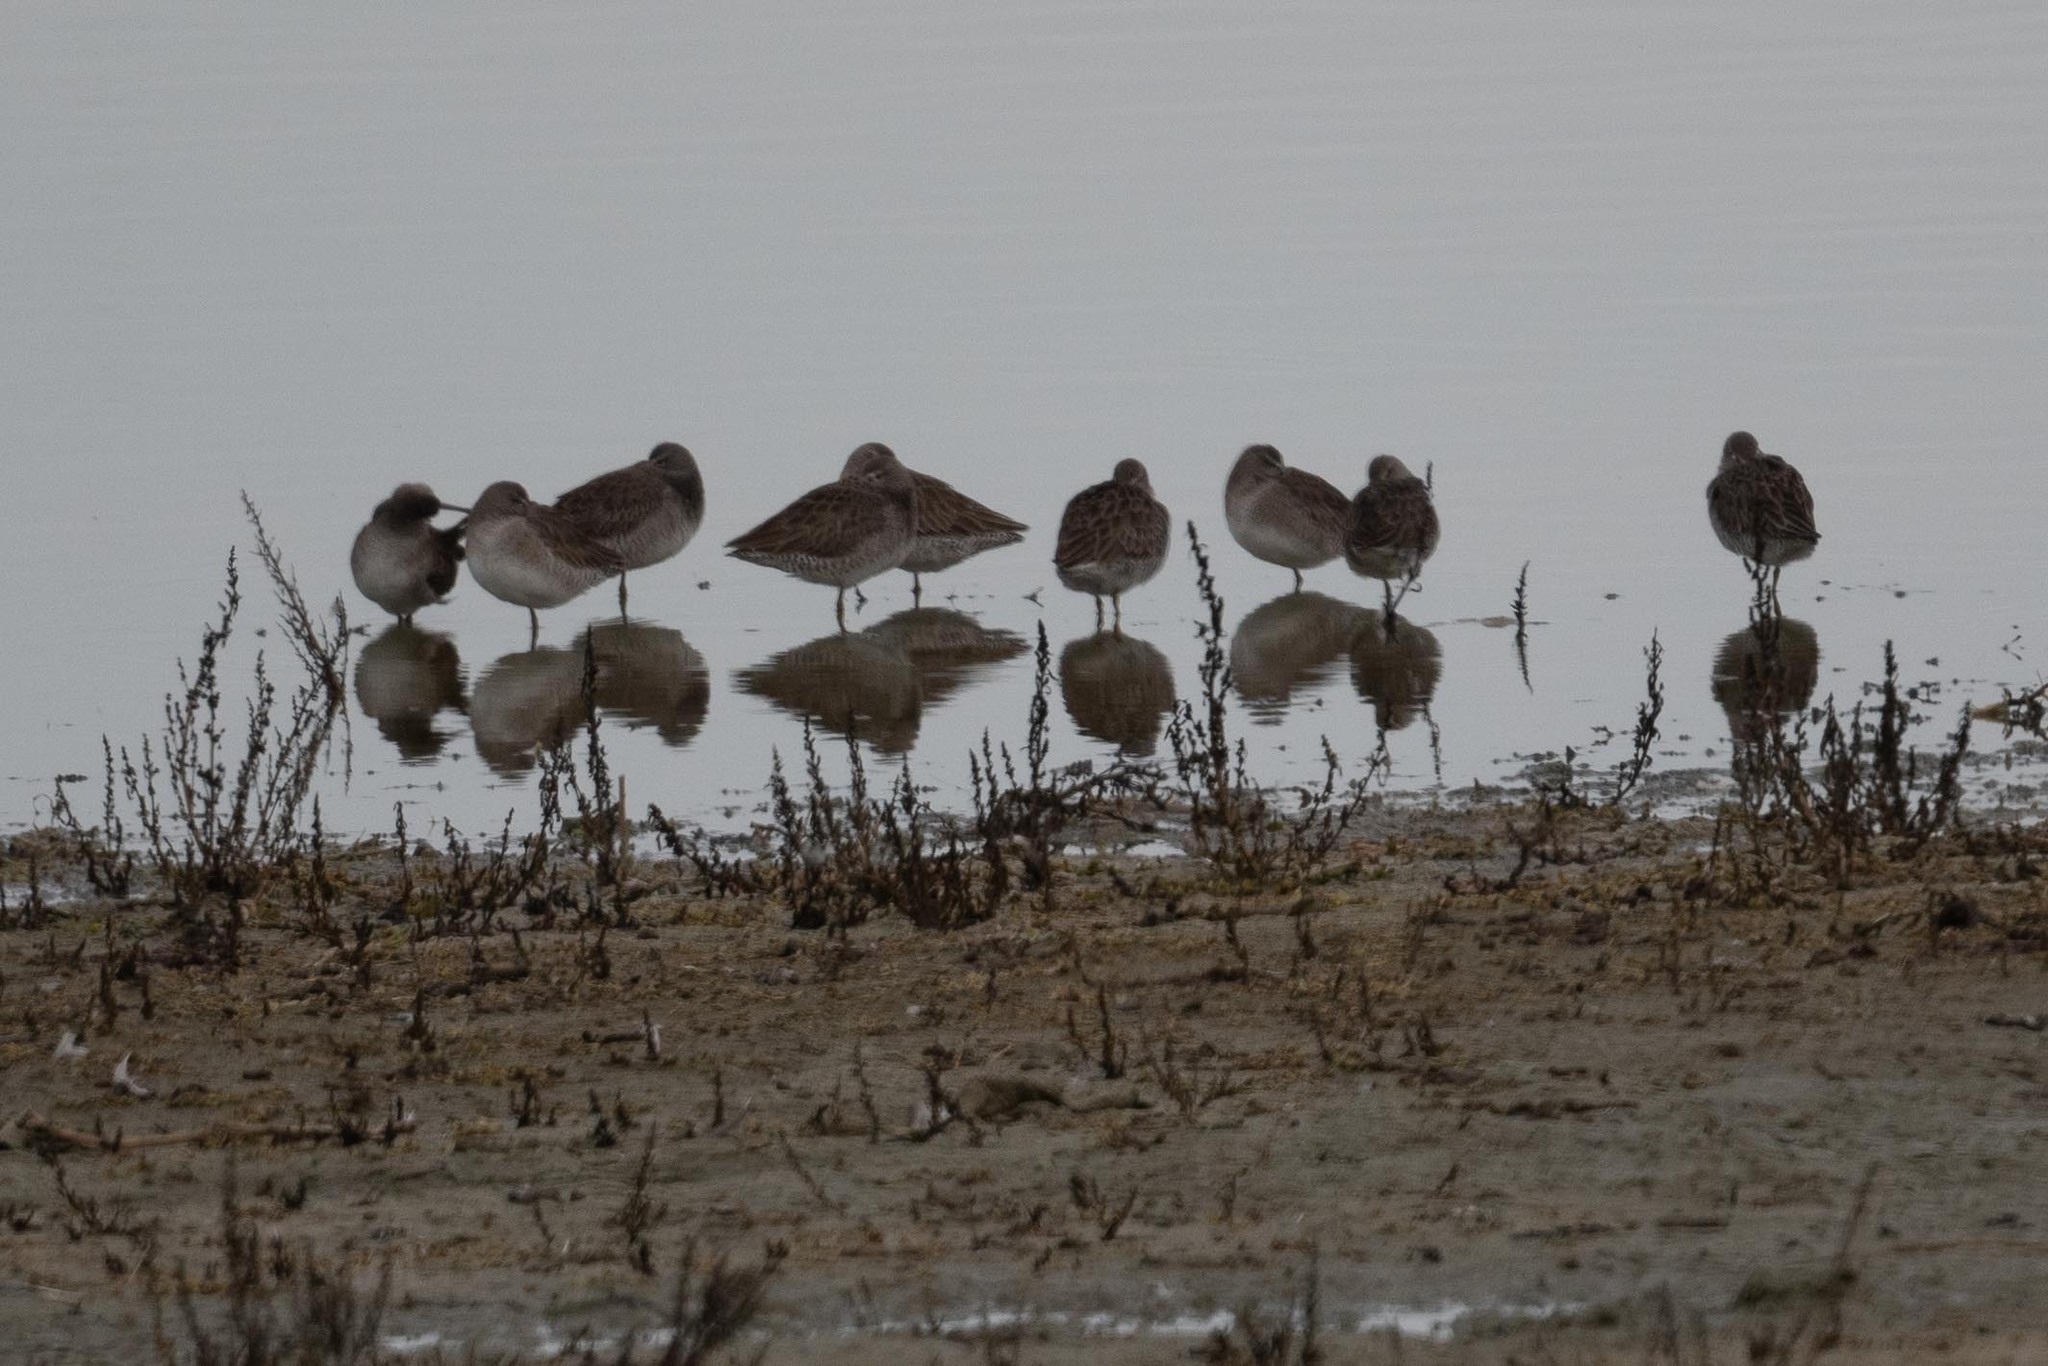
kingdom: Animalia
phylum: Chordata
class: Aves
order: Charadriiformes
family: Scolopacidae
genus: Limnodromus
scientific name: Limnodromus scolopaceus
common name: Long-billed dowitcher
